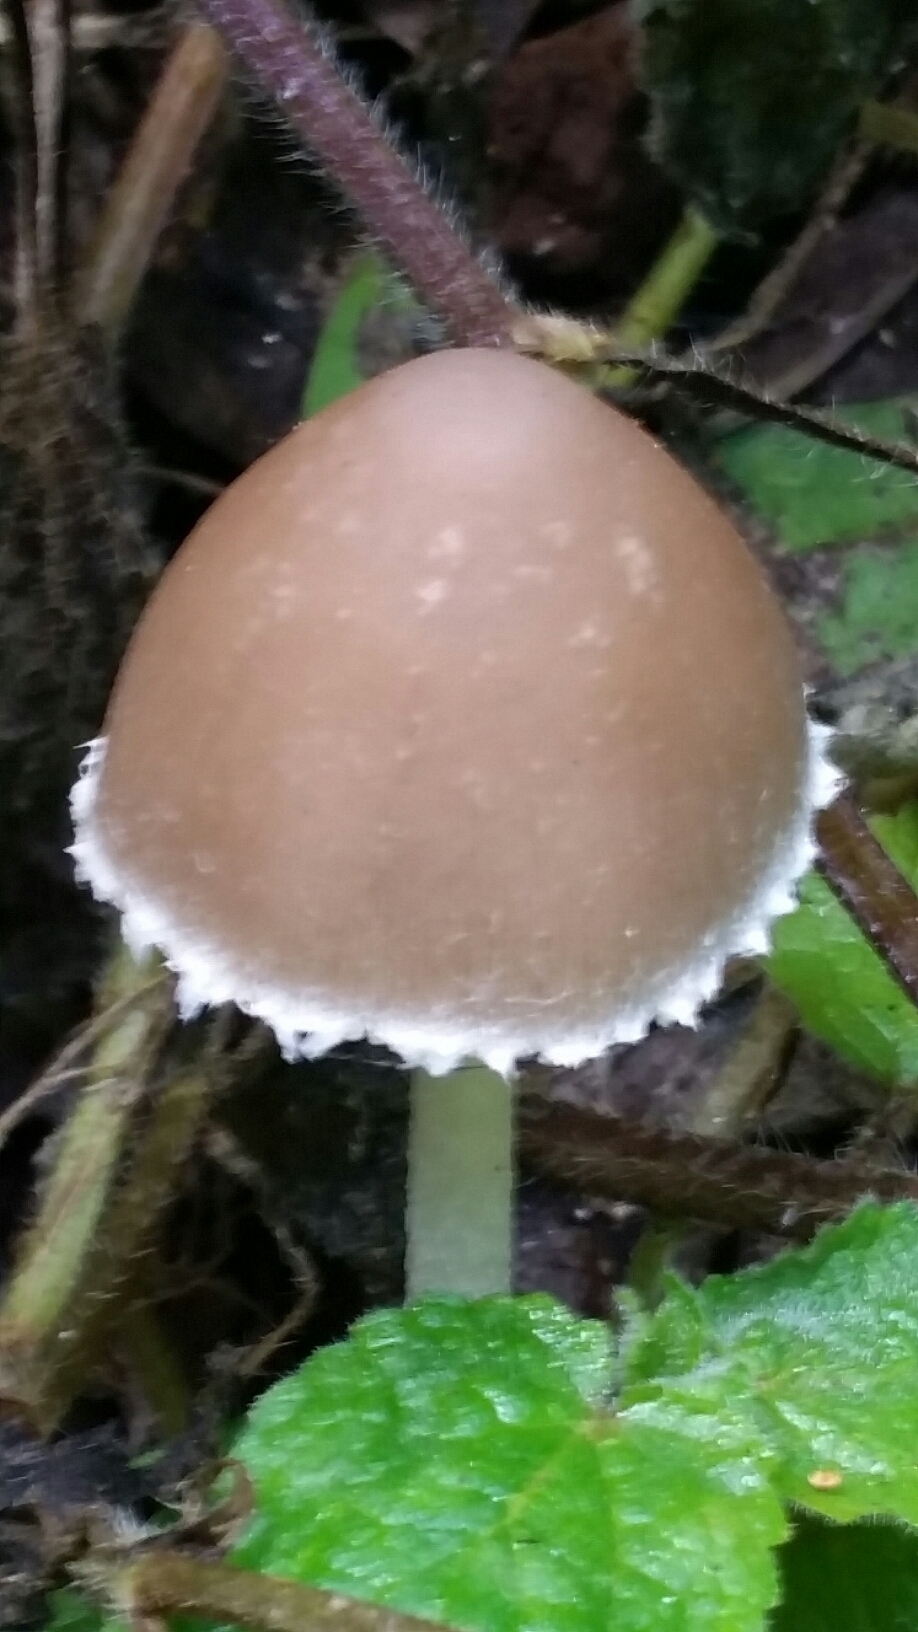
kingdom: Fungi
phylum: Basidiomycota
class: Agaricomycetes
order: Agaricales
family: Psathyrellaceae
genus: Psathyrella
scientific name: Psathyrella longipes
